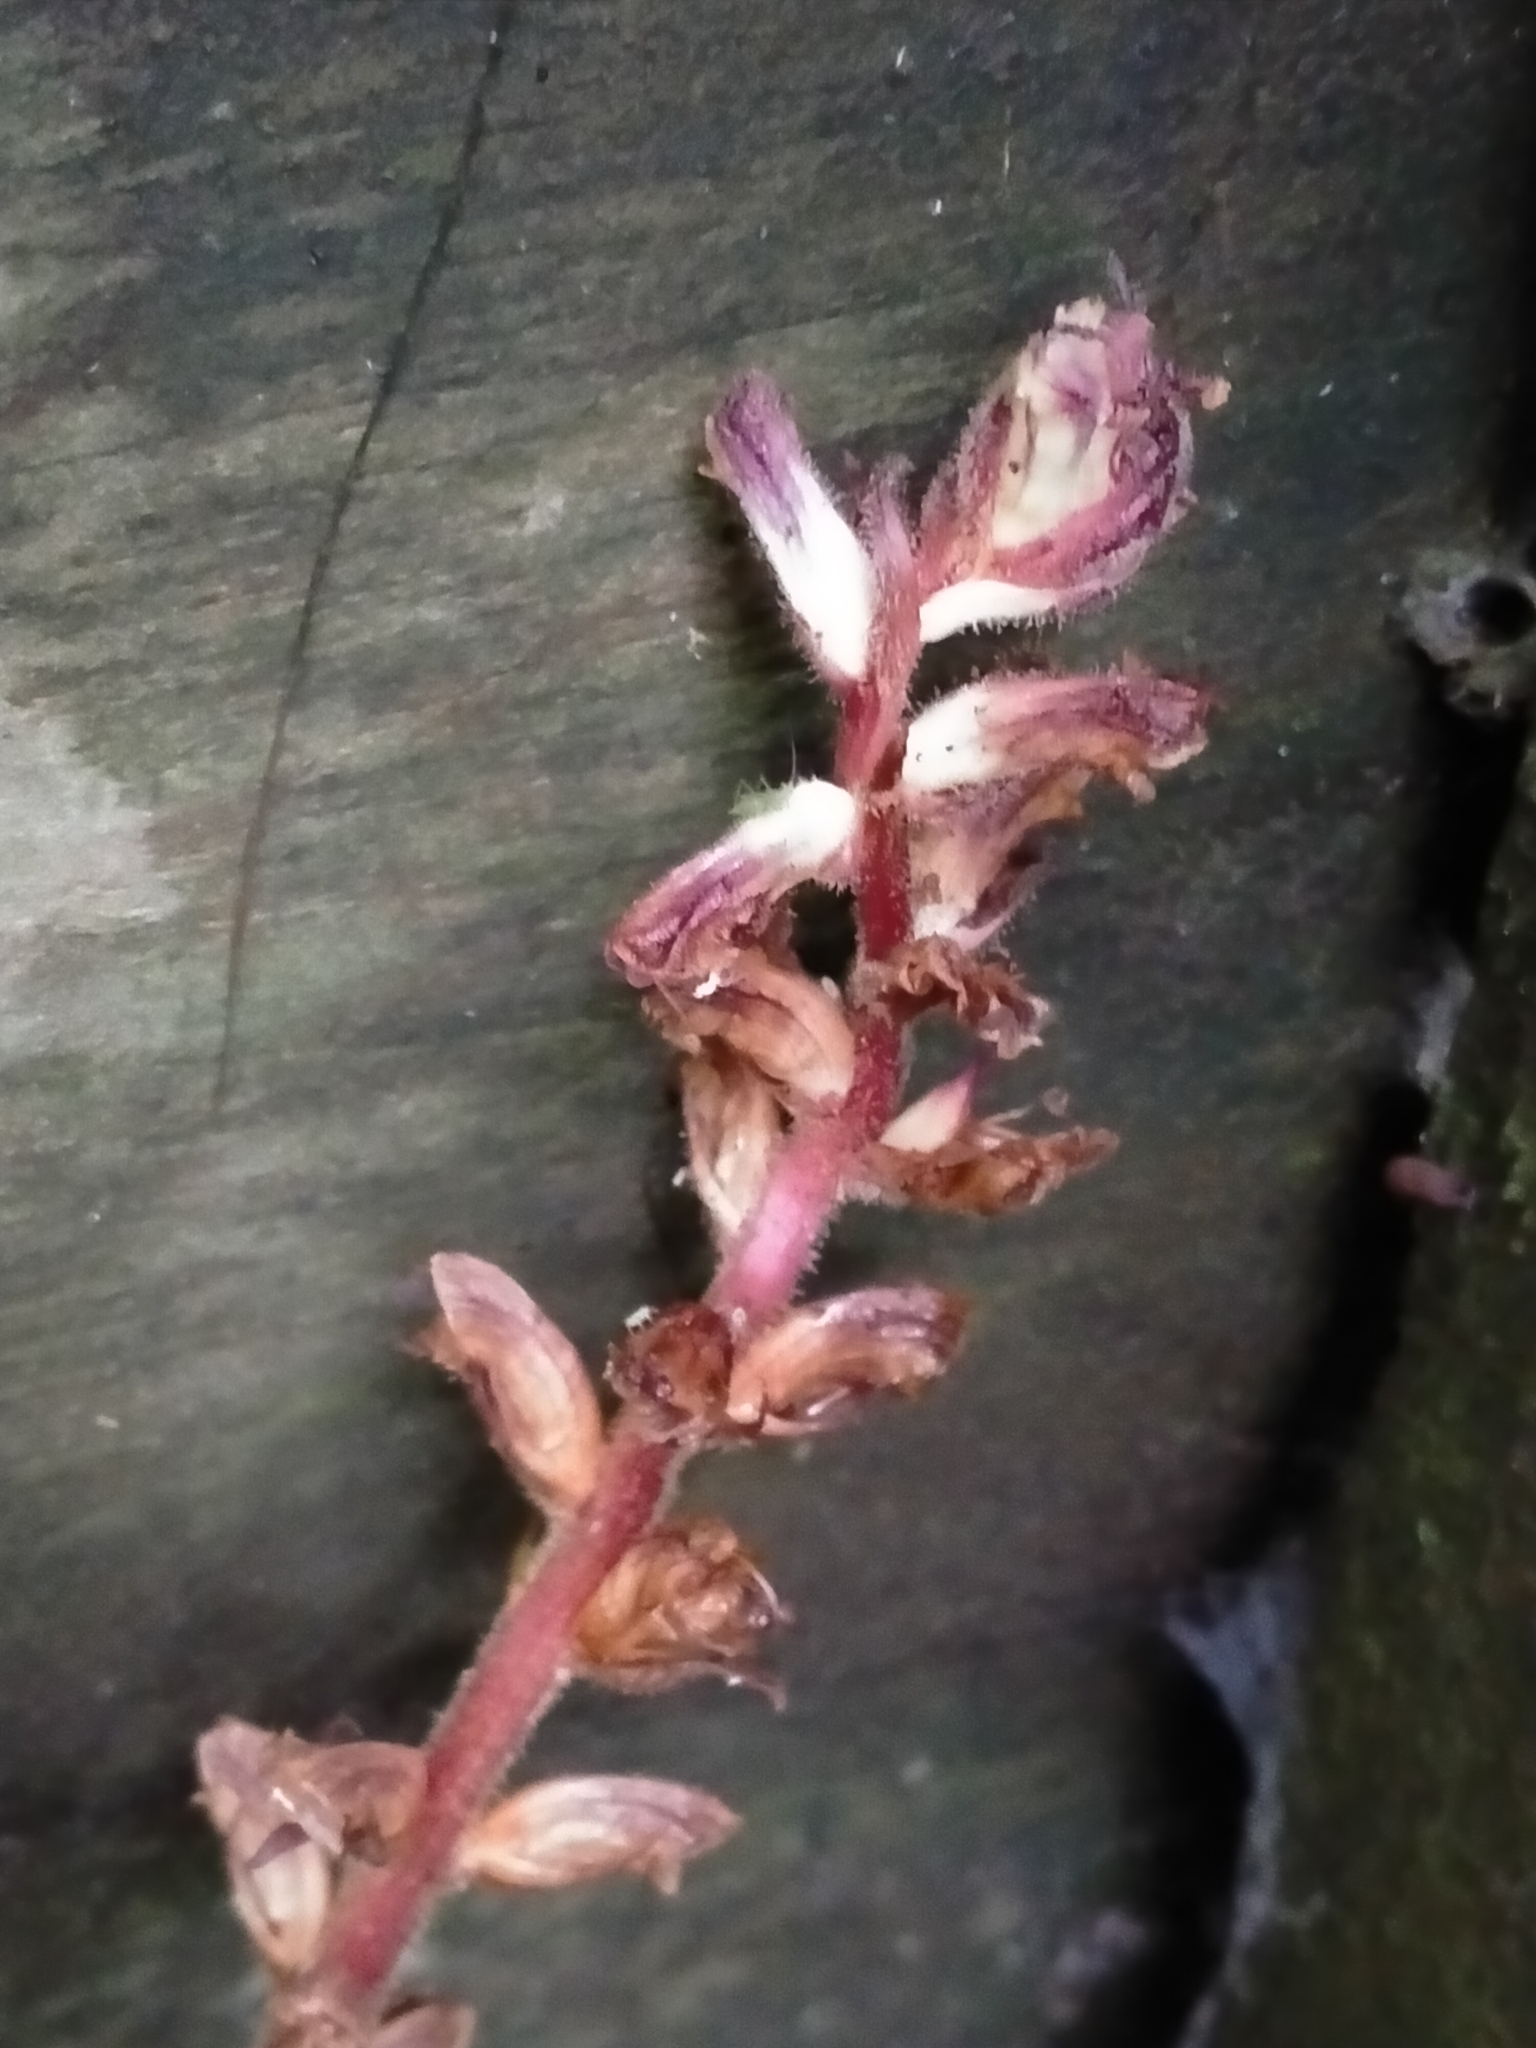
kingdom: Plantae
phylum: Tracheophyta
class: Magnoliopsida
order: Lamiales
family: Orobanchaceae
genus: Orobanche
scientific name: Orobanche minor
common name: Common broomrape
